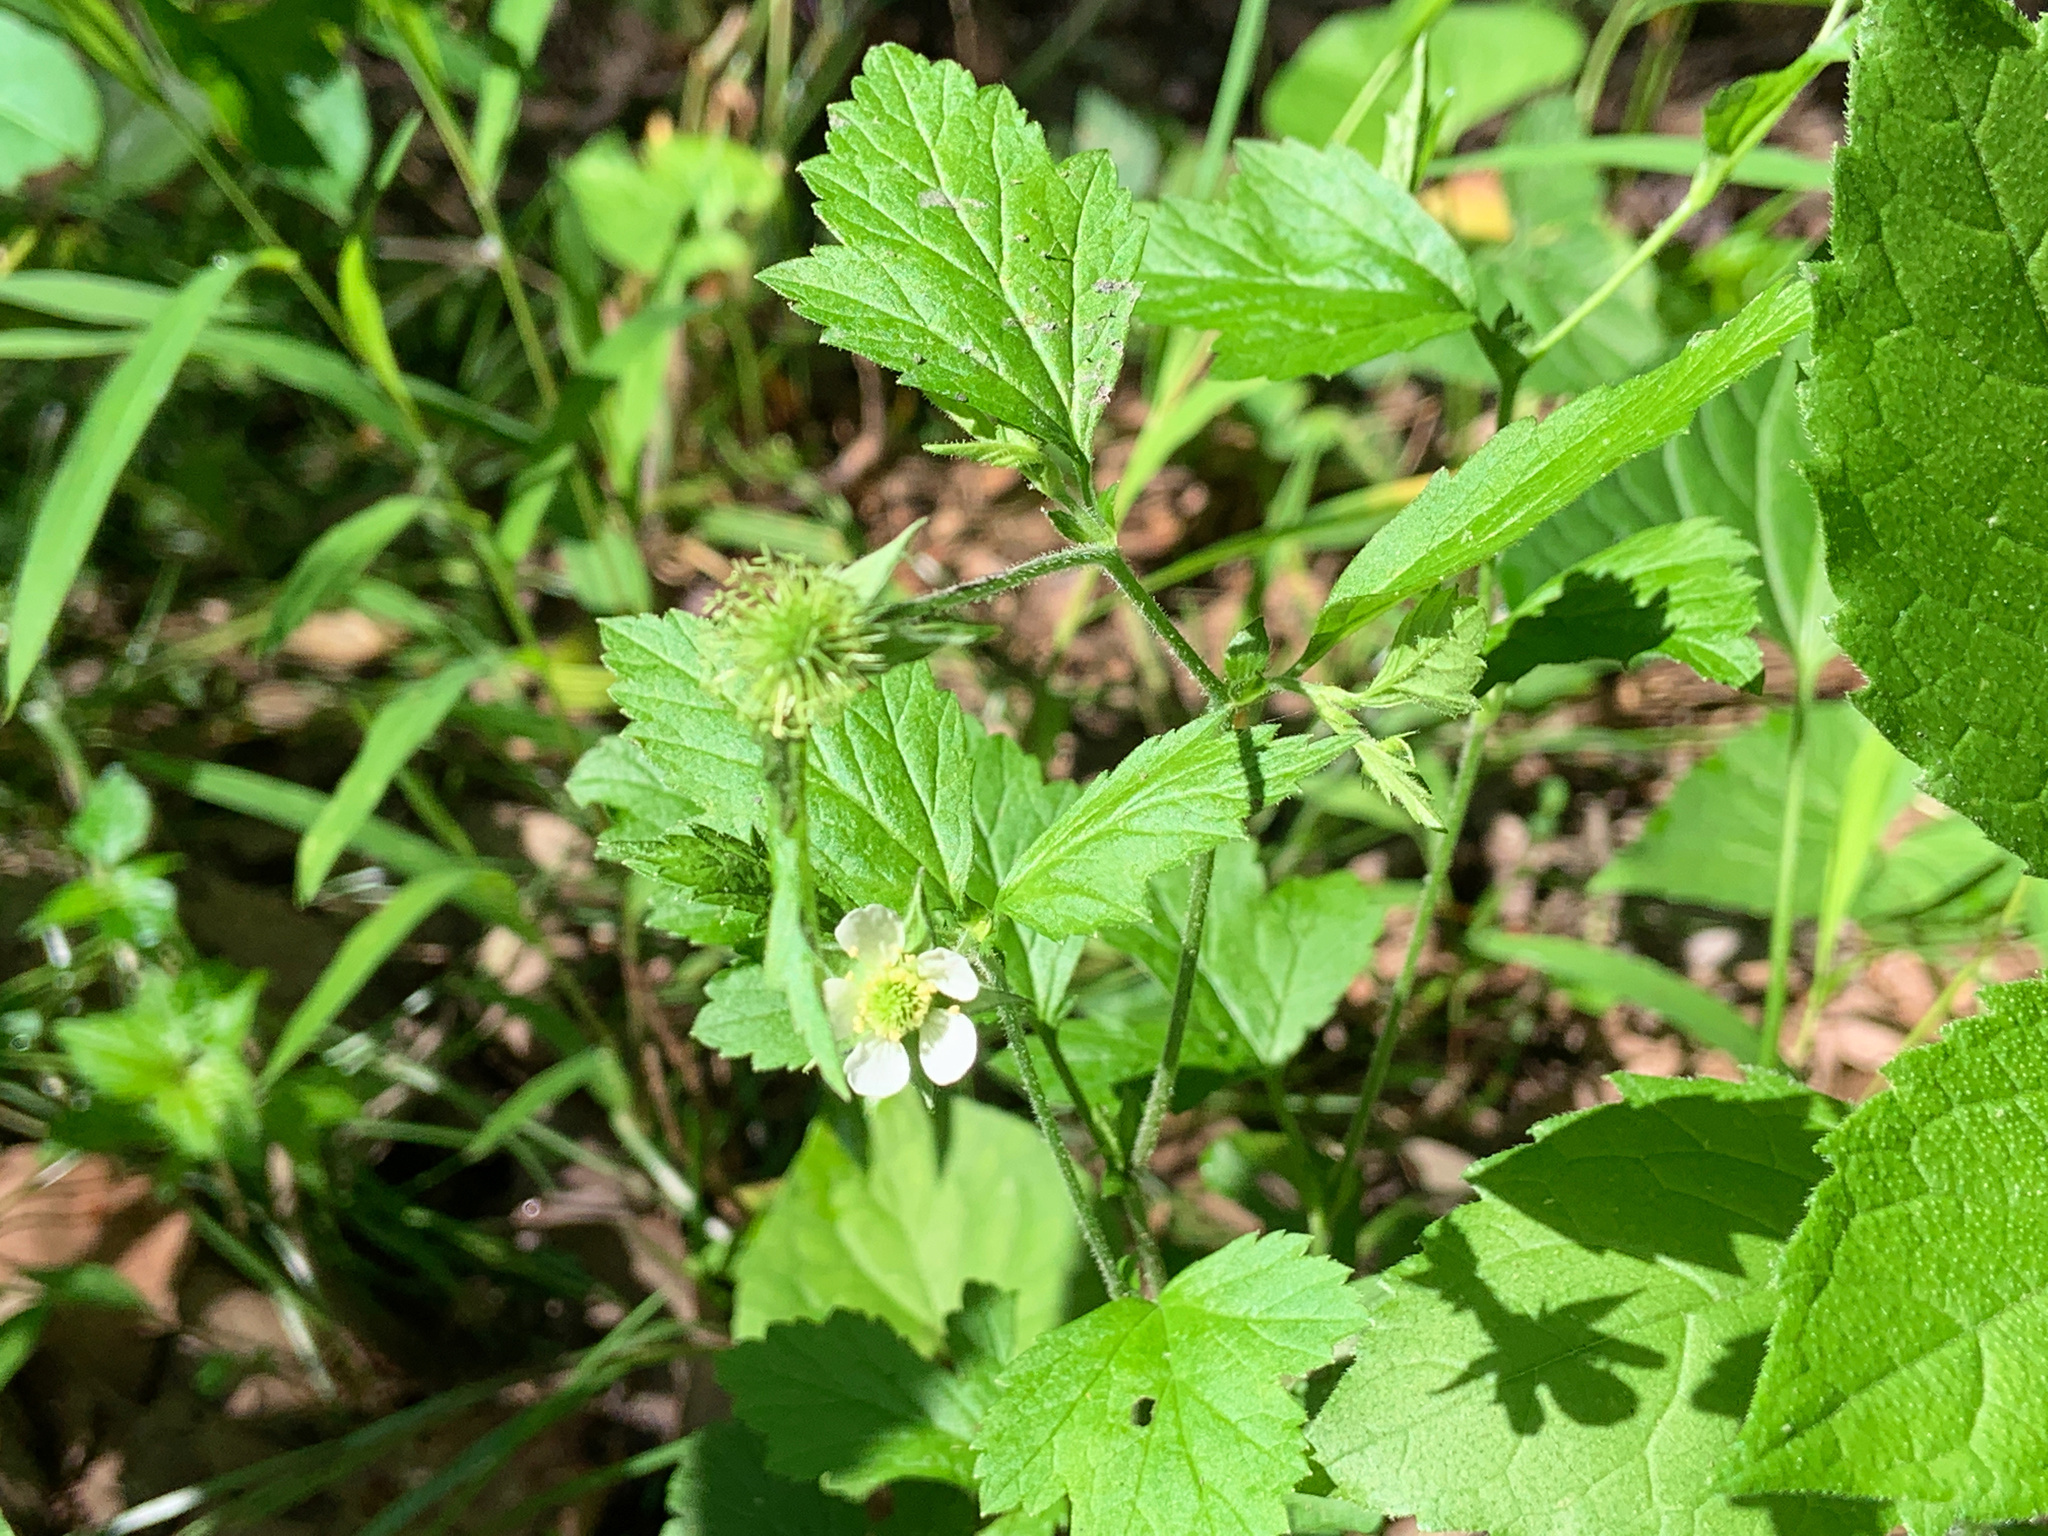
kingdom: Plantae
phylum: Tracheophyta
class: Magnoliopsida
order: Rosales
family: Rosaceae
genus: Geum
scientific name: Geum canadense
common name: White avens
